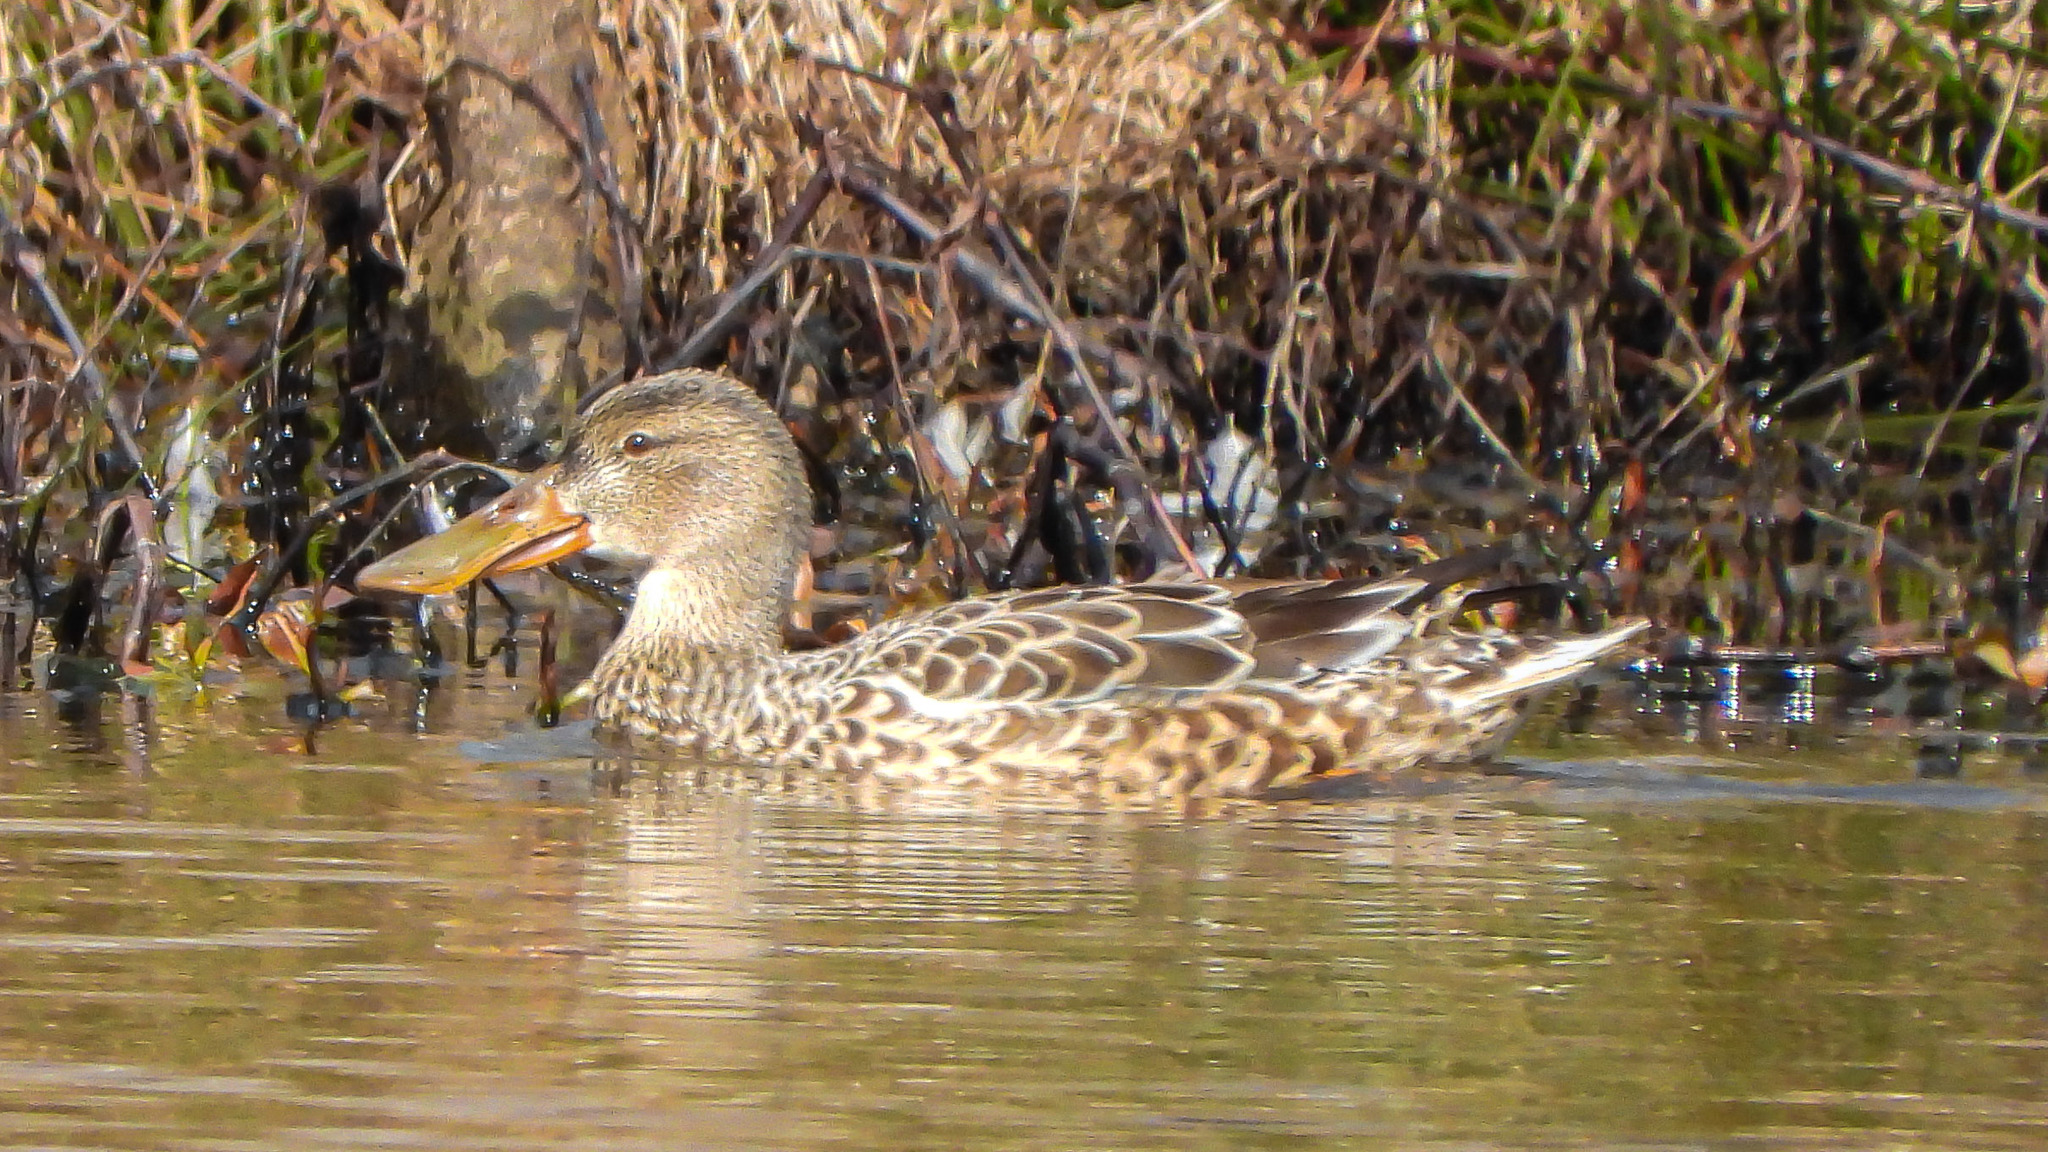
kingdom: Animalia
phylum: Chordata
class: Aves
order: Anseriformes
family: Anatidae
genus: Spatula
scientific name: Spatula clypeata
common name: Northern shoveler
